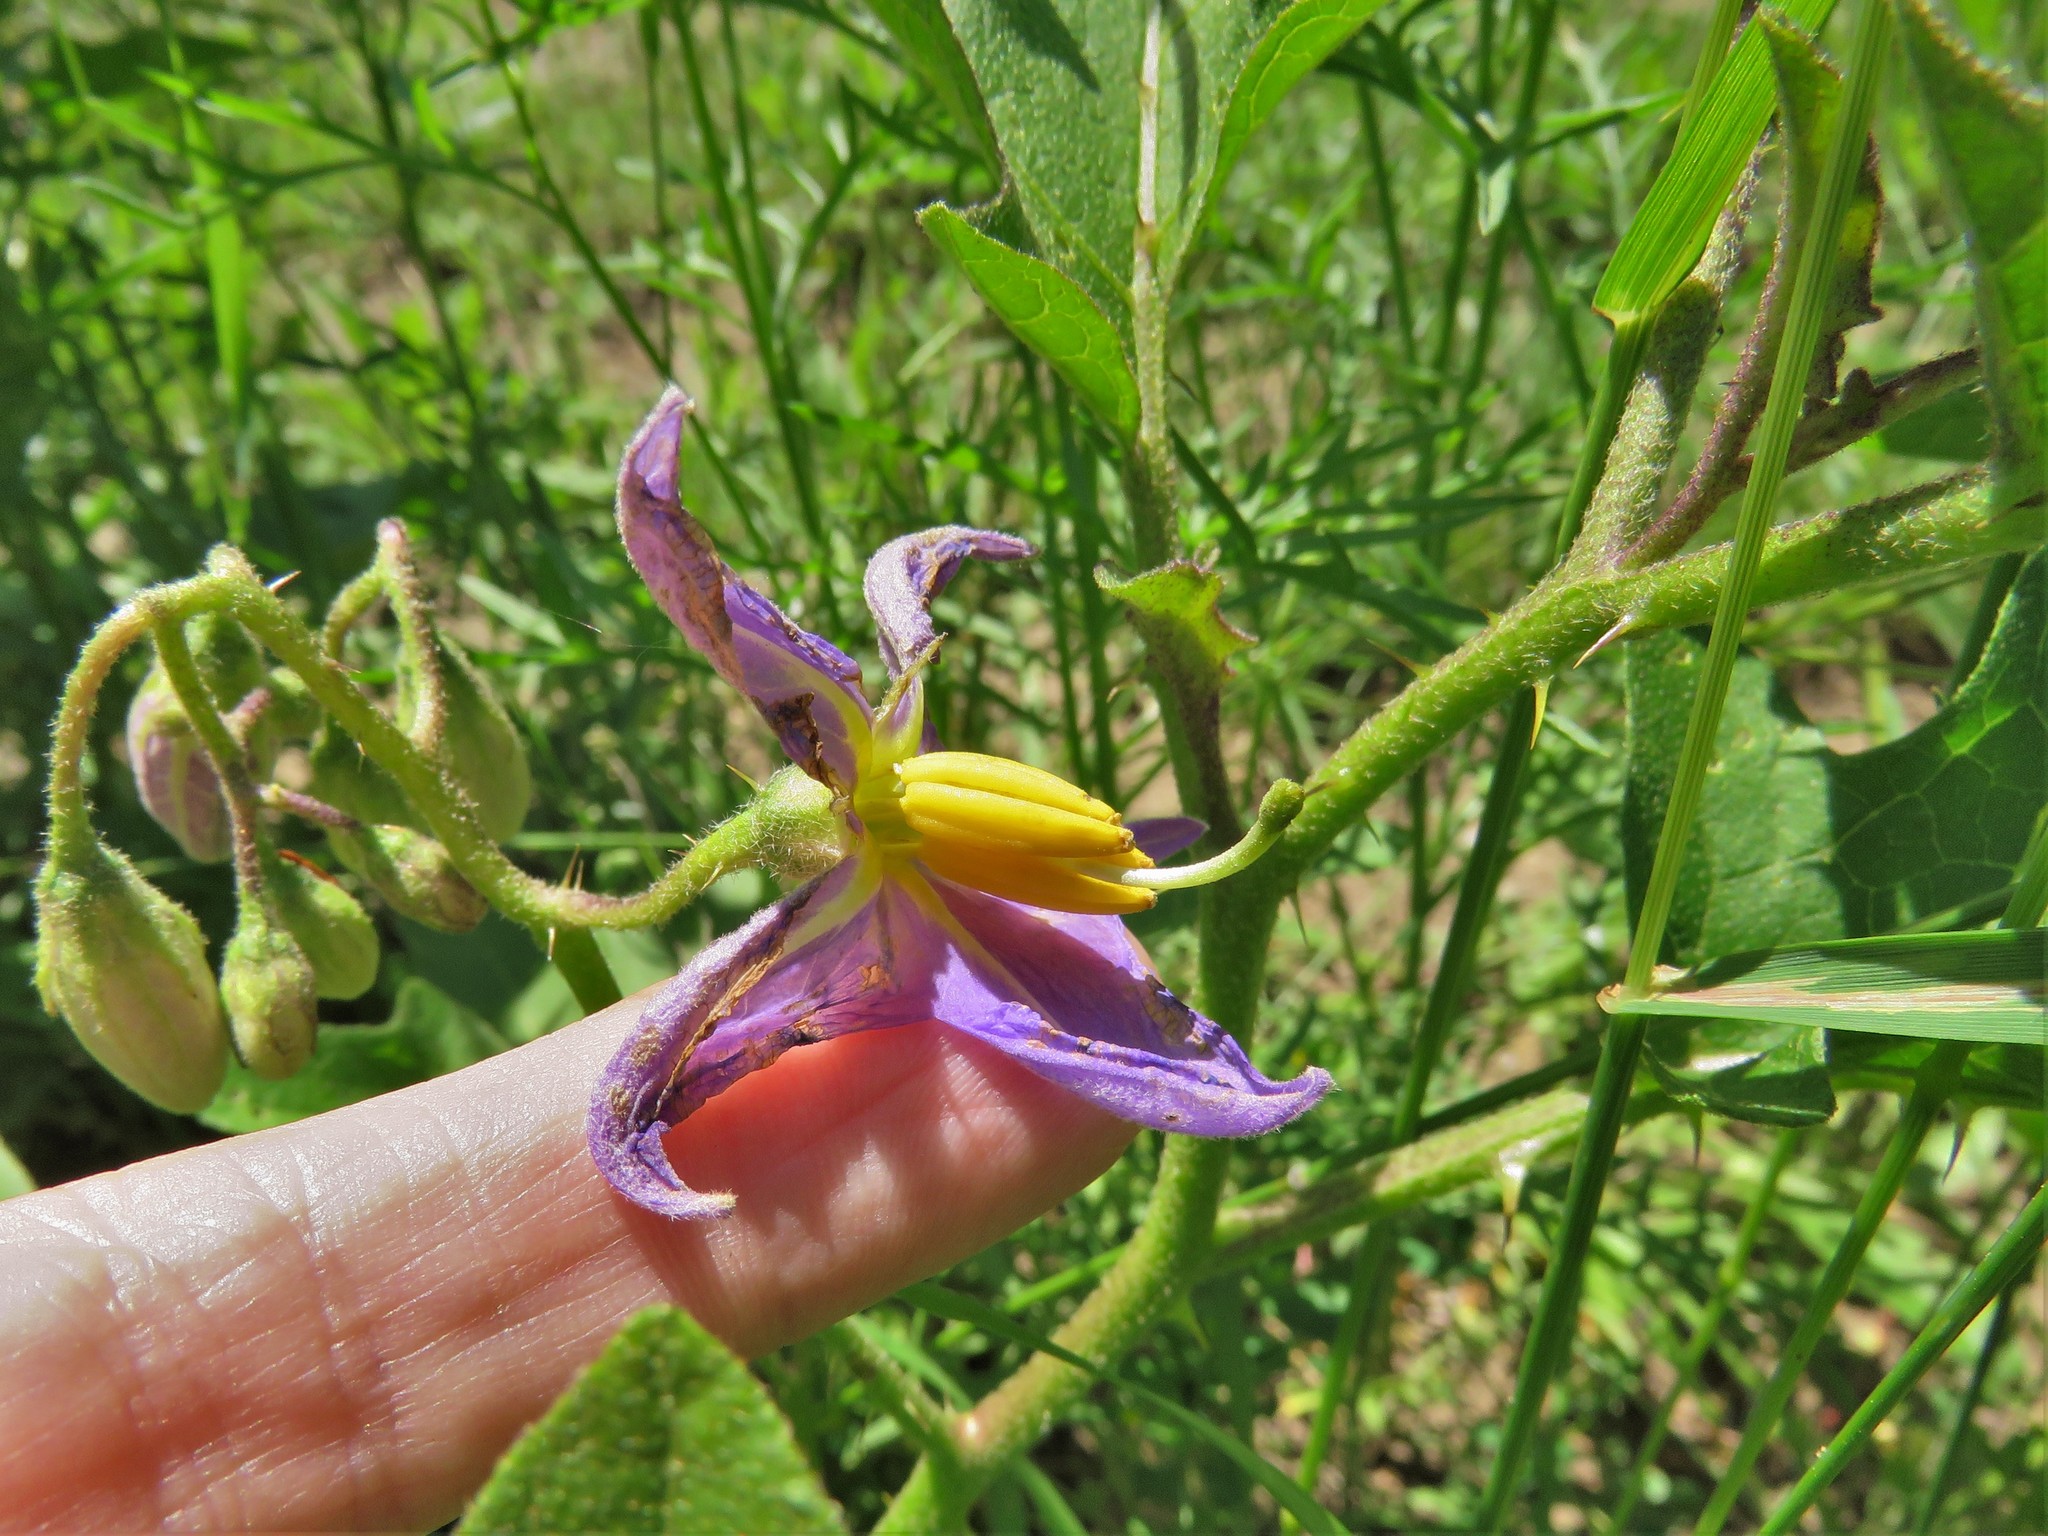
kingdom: Plantae
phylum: Tracheophyta
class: Magnoliopsida
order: Solanales
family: Solanaceae
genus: Solanum
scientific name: Solanum dimidiatum
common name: Carolina horse-nettle
